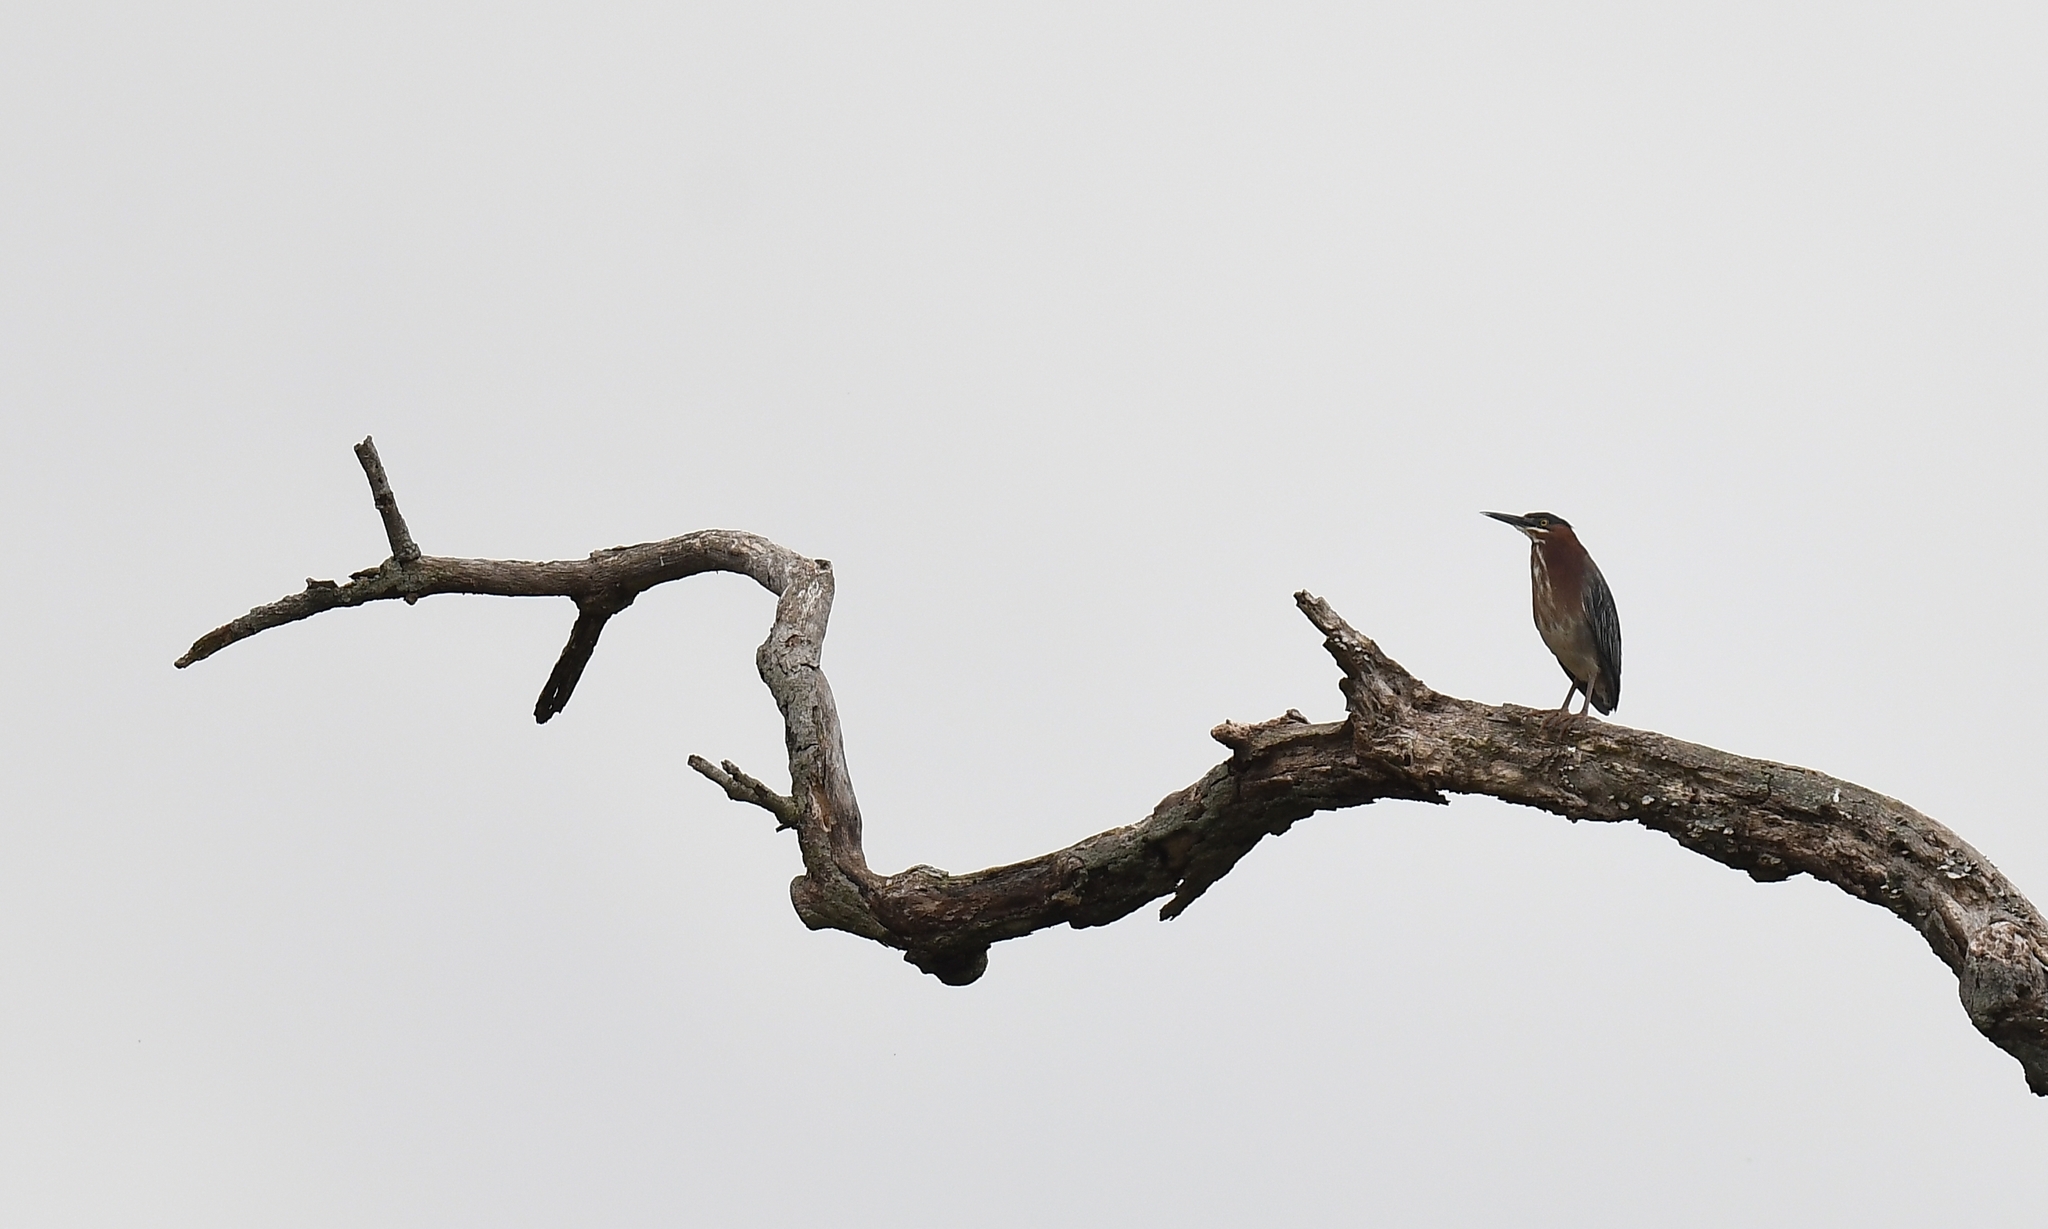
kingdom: Animalia
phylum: Chordata
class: Aves
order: Pelecaniformes
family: Ardeidae
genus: Butorides
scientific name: Butorides virescens
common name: Green heron
